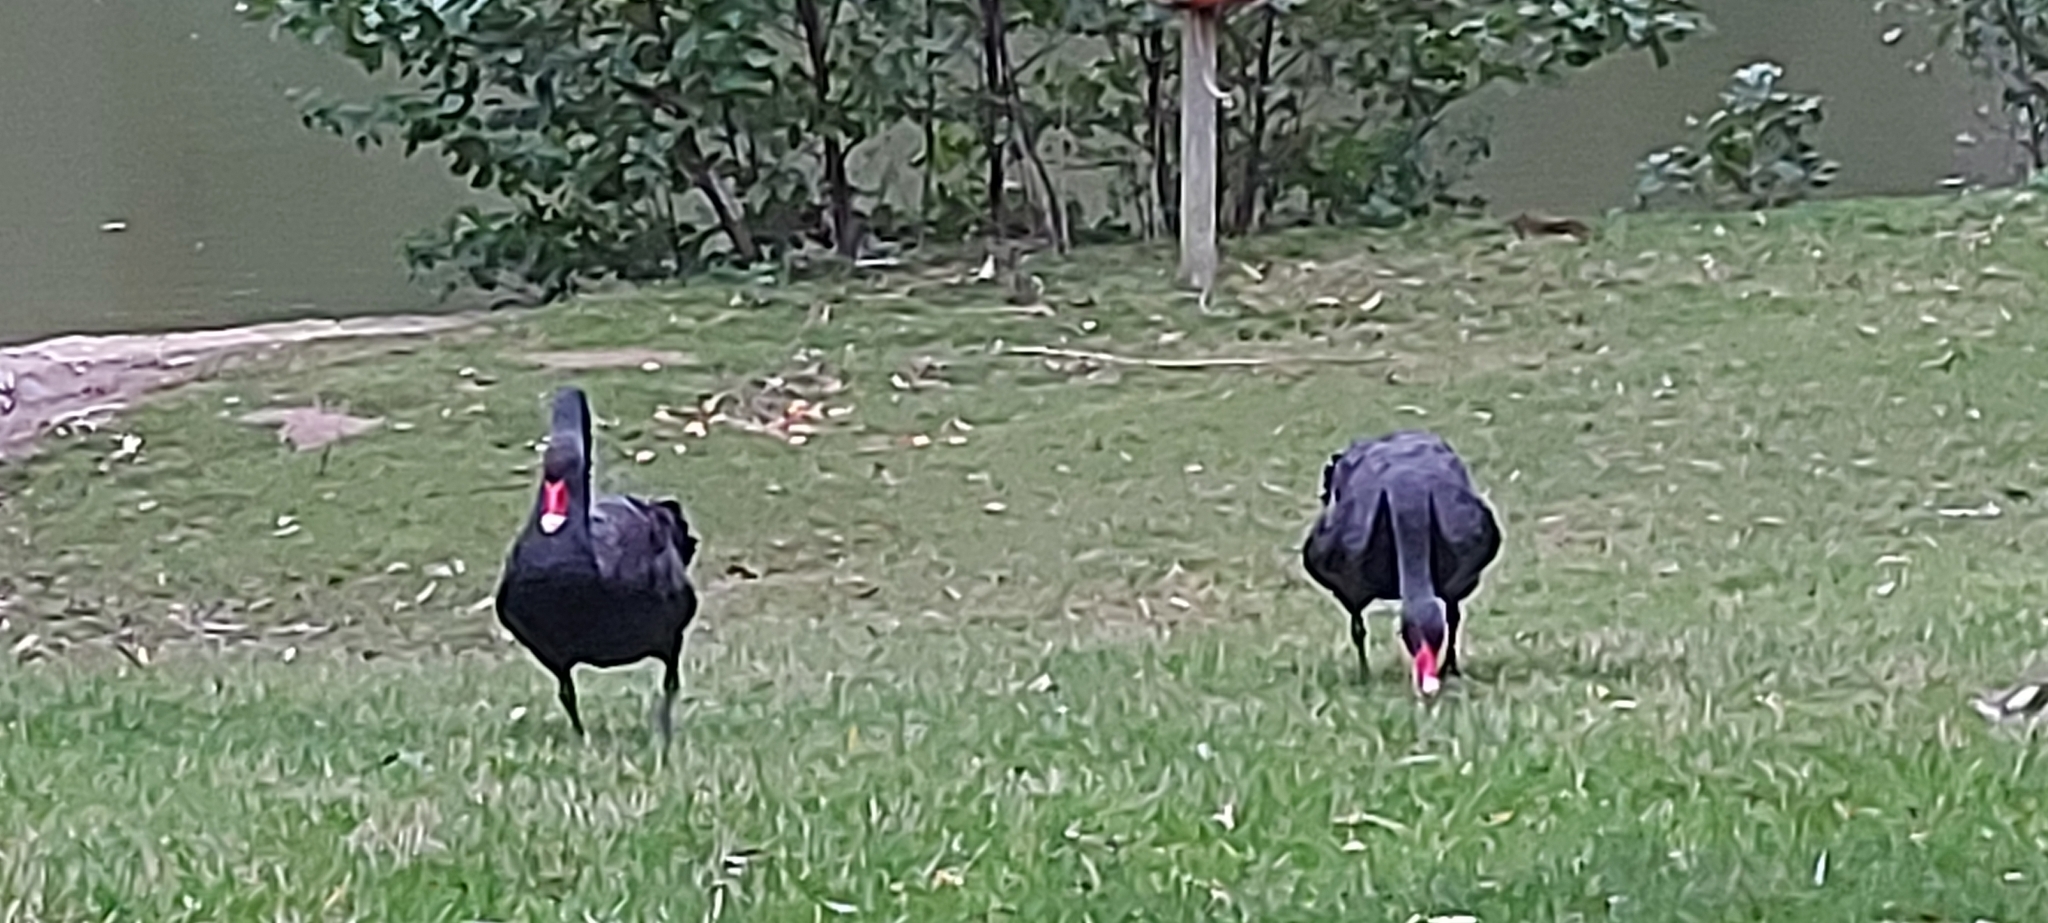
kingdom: Animalia
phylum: Chordata
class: Aves
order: Anseriformes
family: Anatidae
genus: Cygnus
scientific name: Cygnus atratus
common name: Black swan
